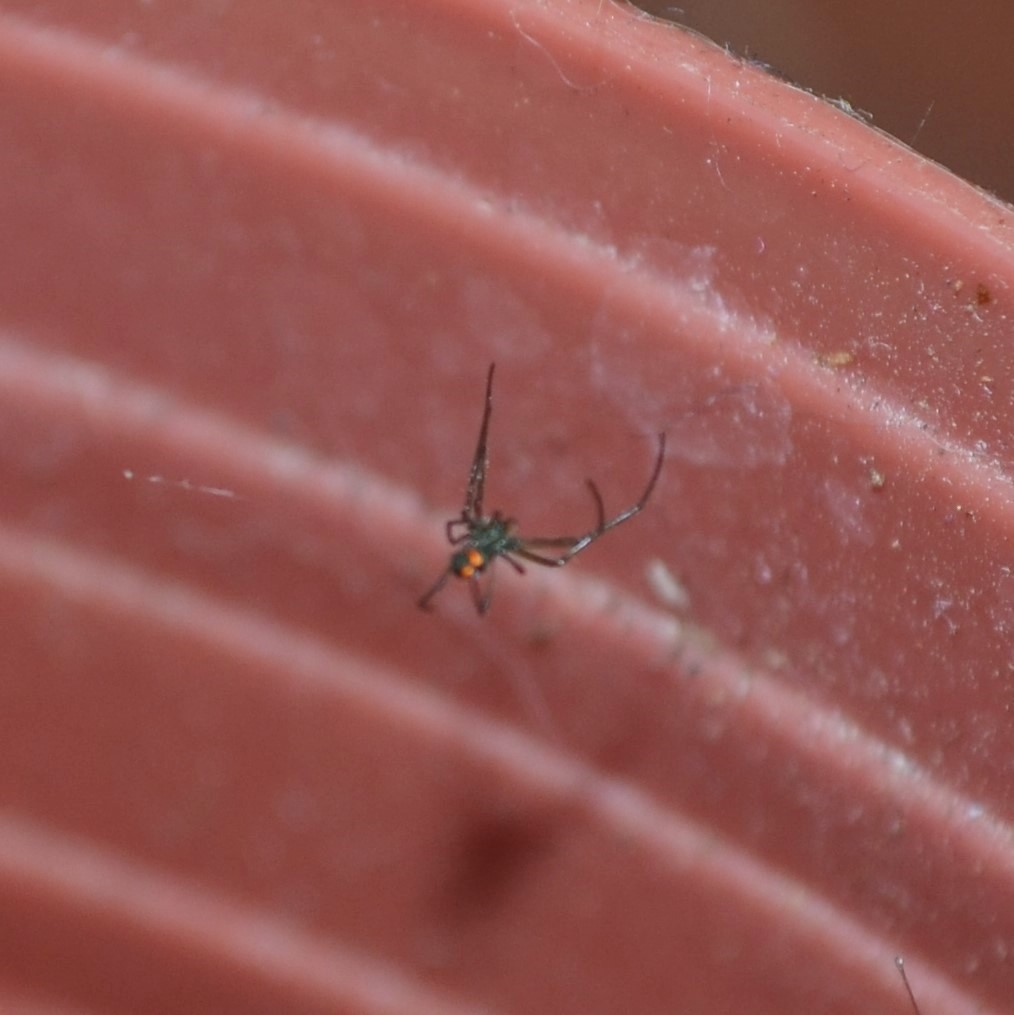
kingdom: Animalia
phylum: Arthropoda
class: Arachnida
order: Araneae
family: Tetragnathidae
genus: Leucauge
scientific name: Leucauge argyrobapta
